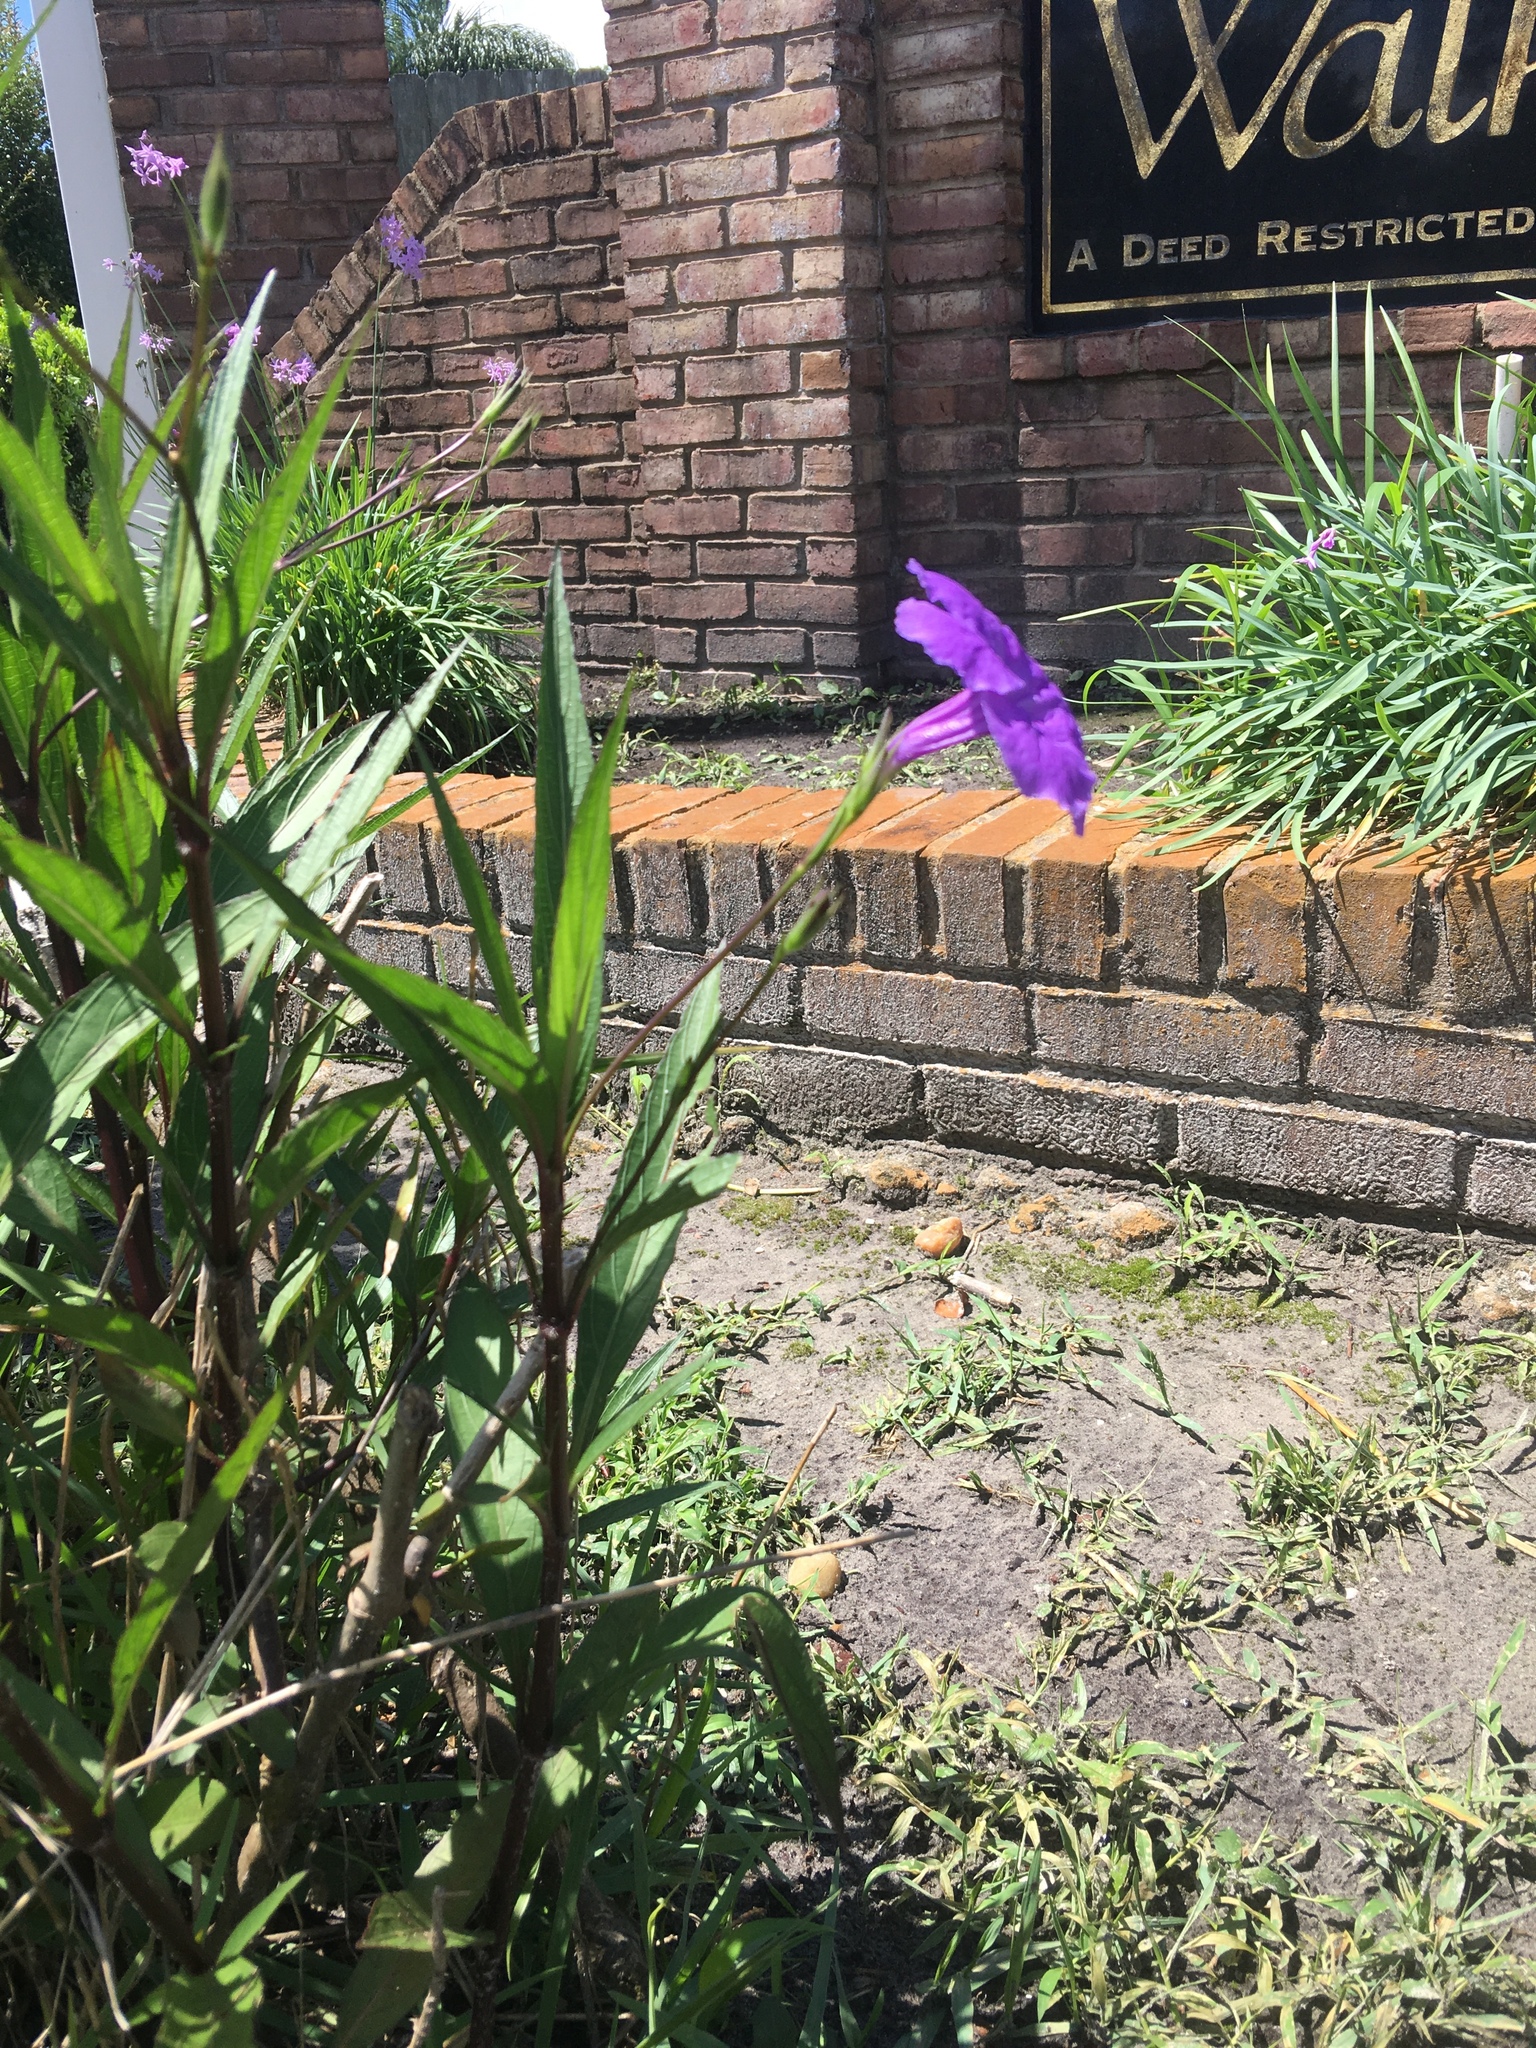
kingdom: Plantae
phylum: Tracheophyta
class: Magnoliopsida
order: Lamiales
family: Acanthaceae
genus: Ruellia
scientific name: Ruellia simplex
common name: Softseed wild petunia
